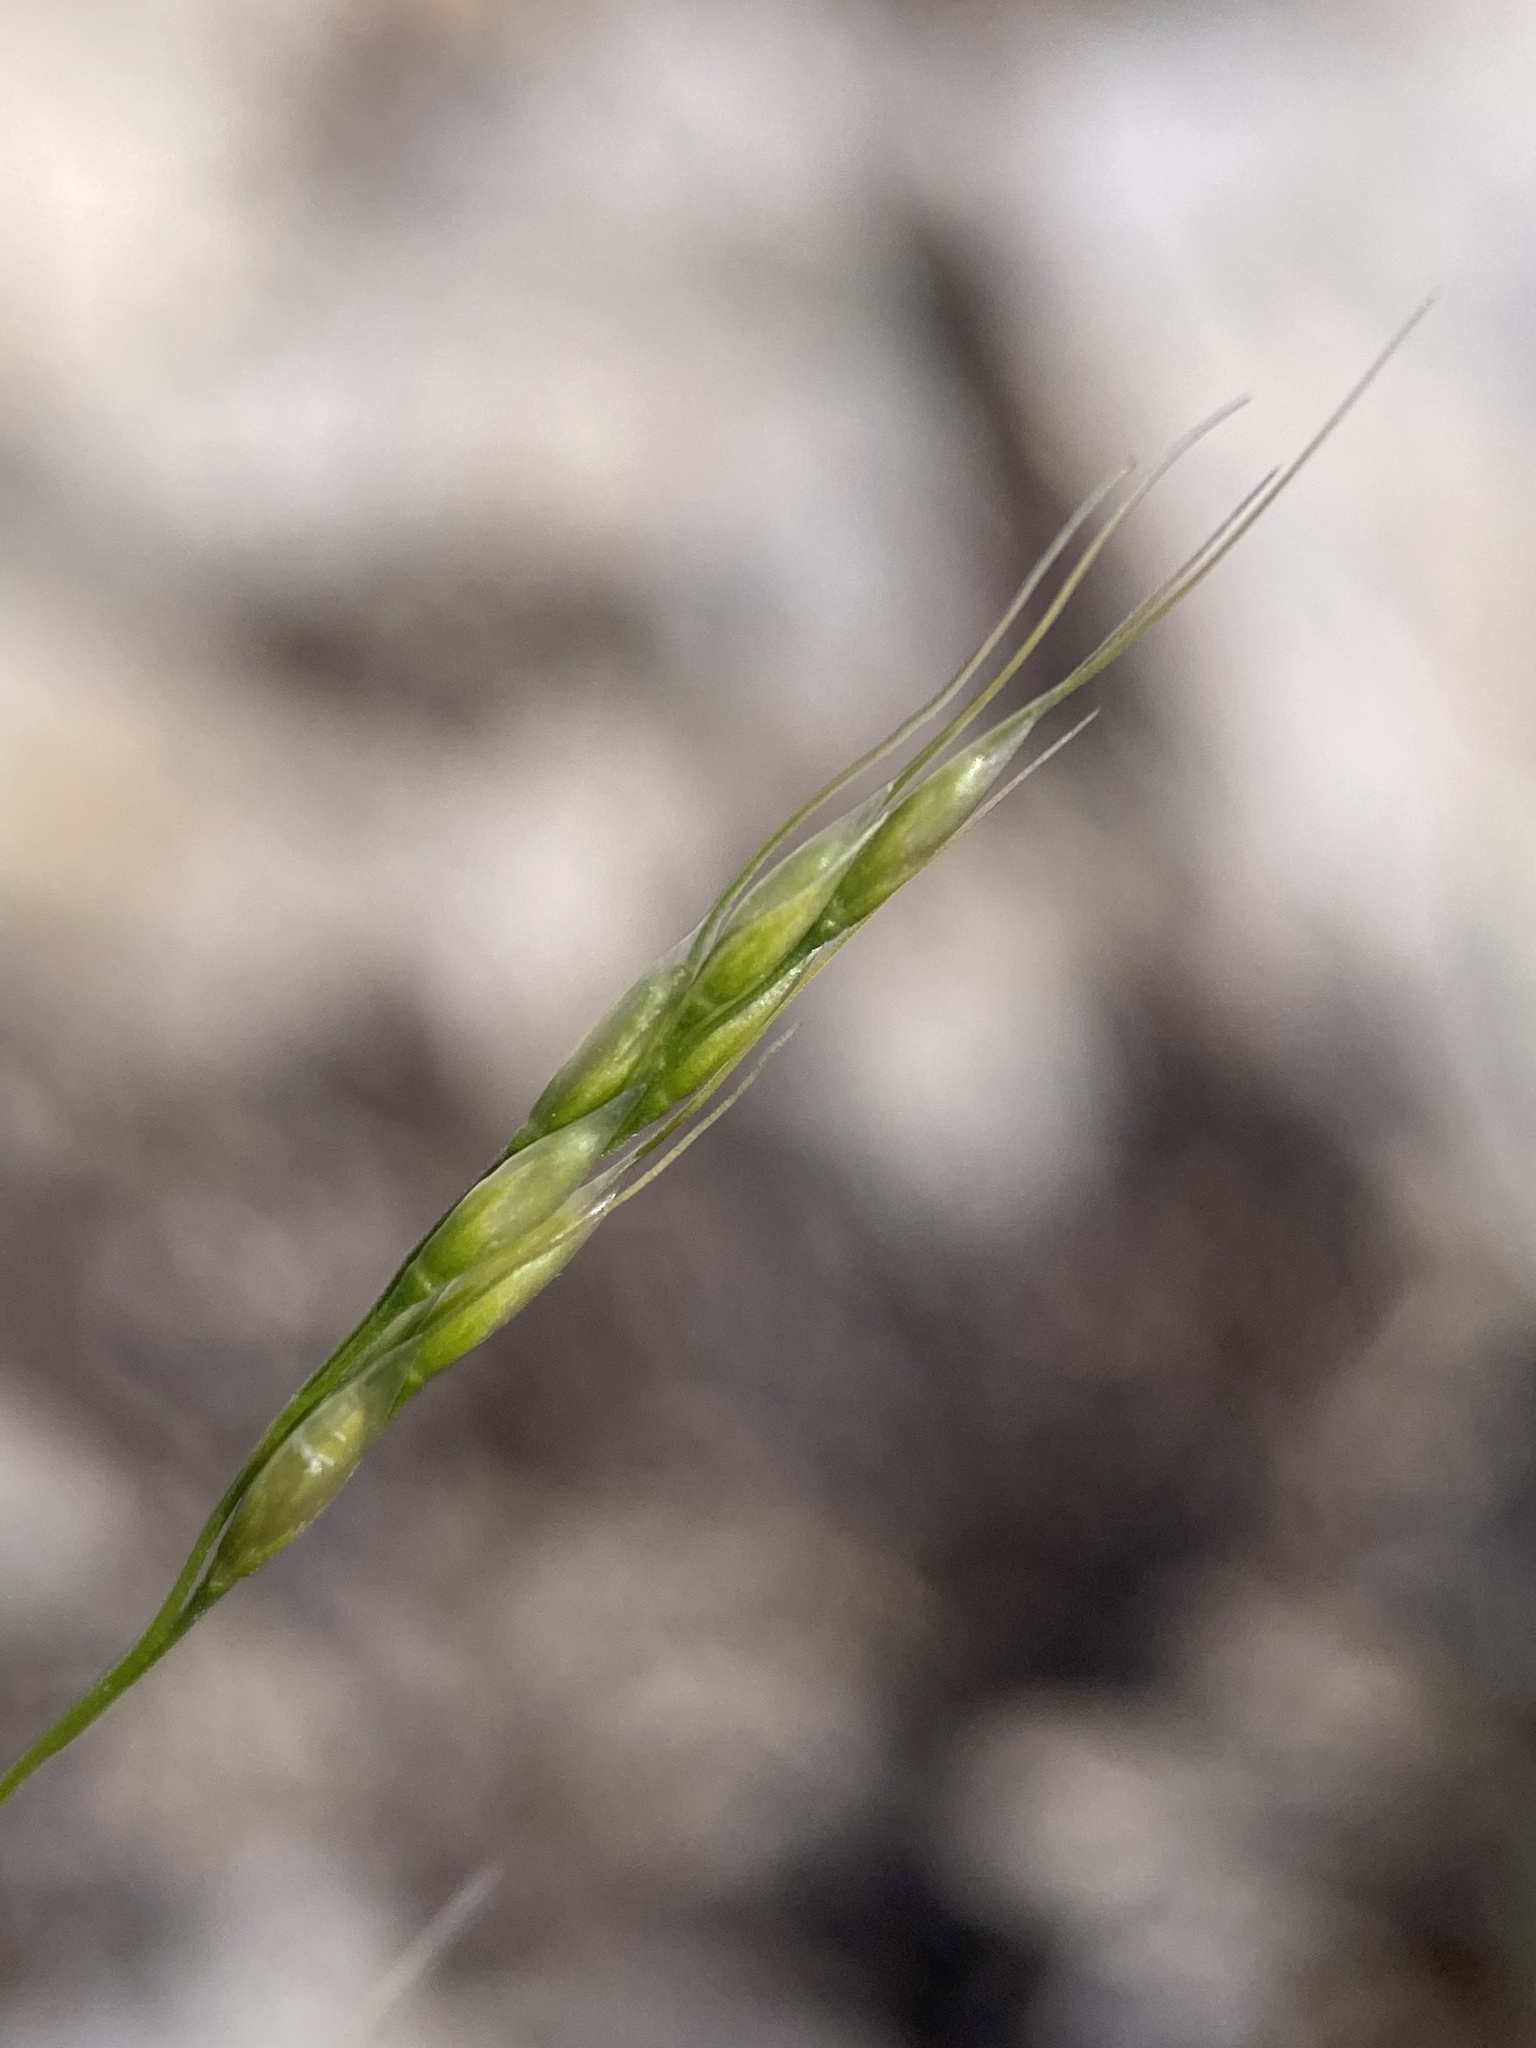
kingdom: Plantae
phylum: Tracheophyta
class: Liliopsida
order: Poales
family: Poaceae
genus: Piptatheropsis
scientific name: Piptatheropsis micrantha
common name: Little-seed mountain ricegrass
